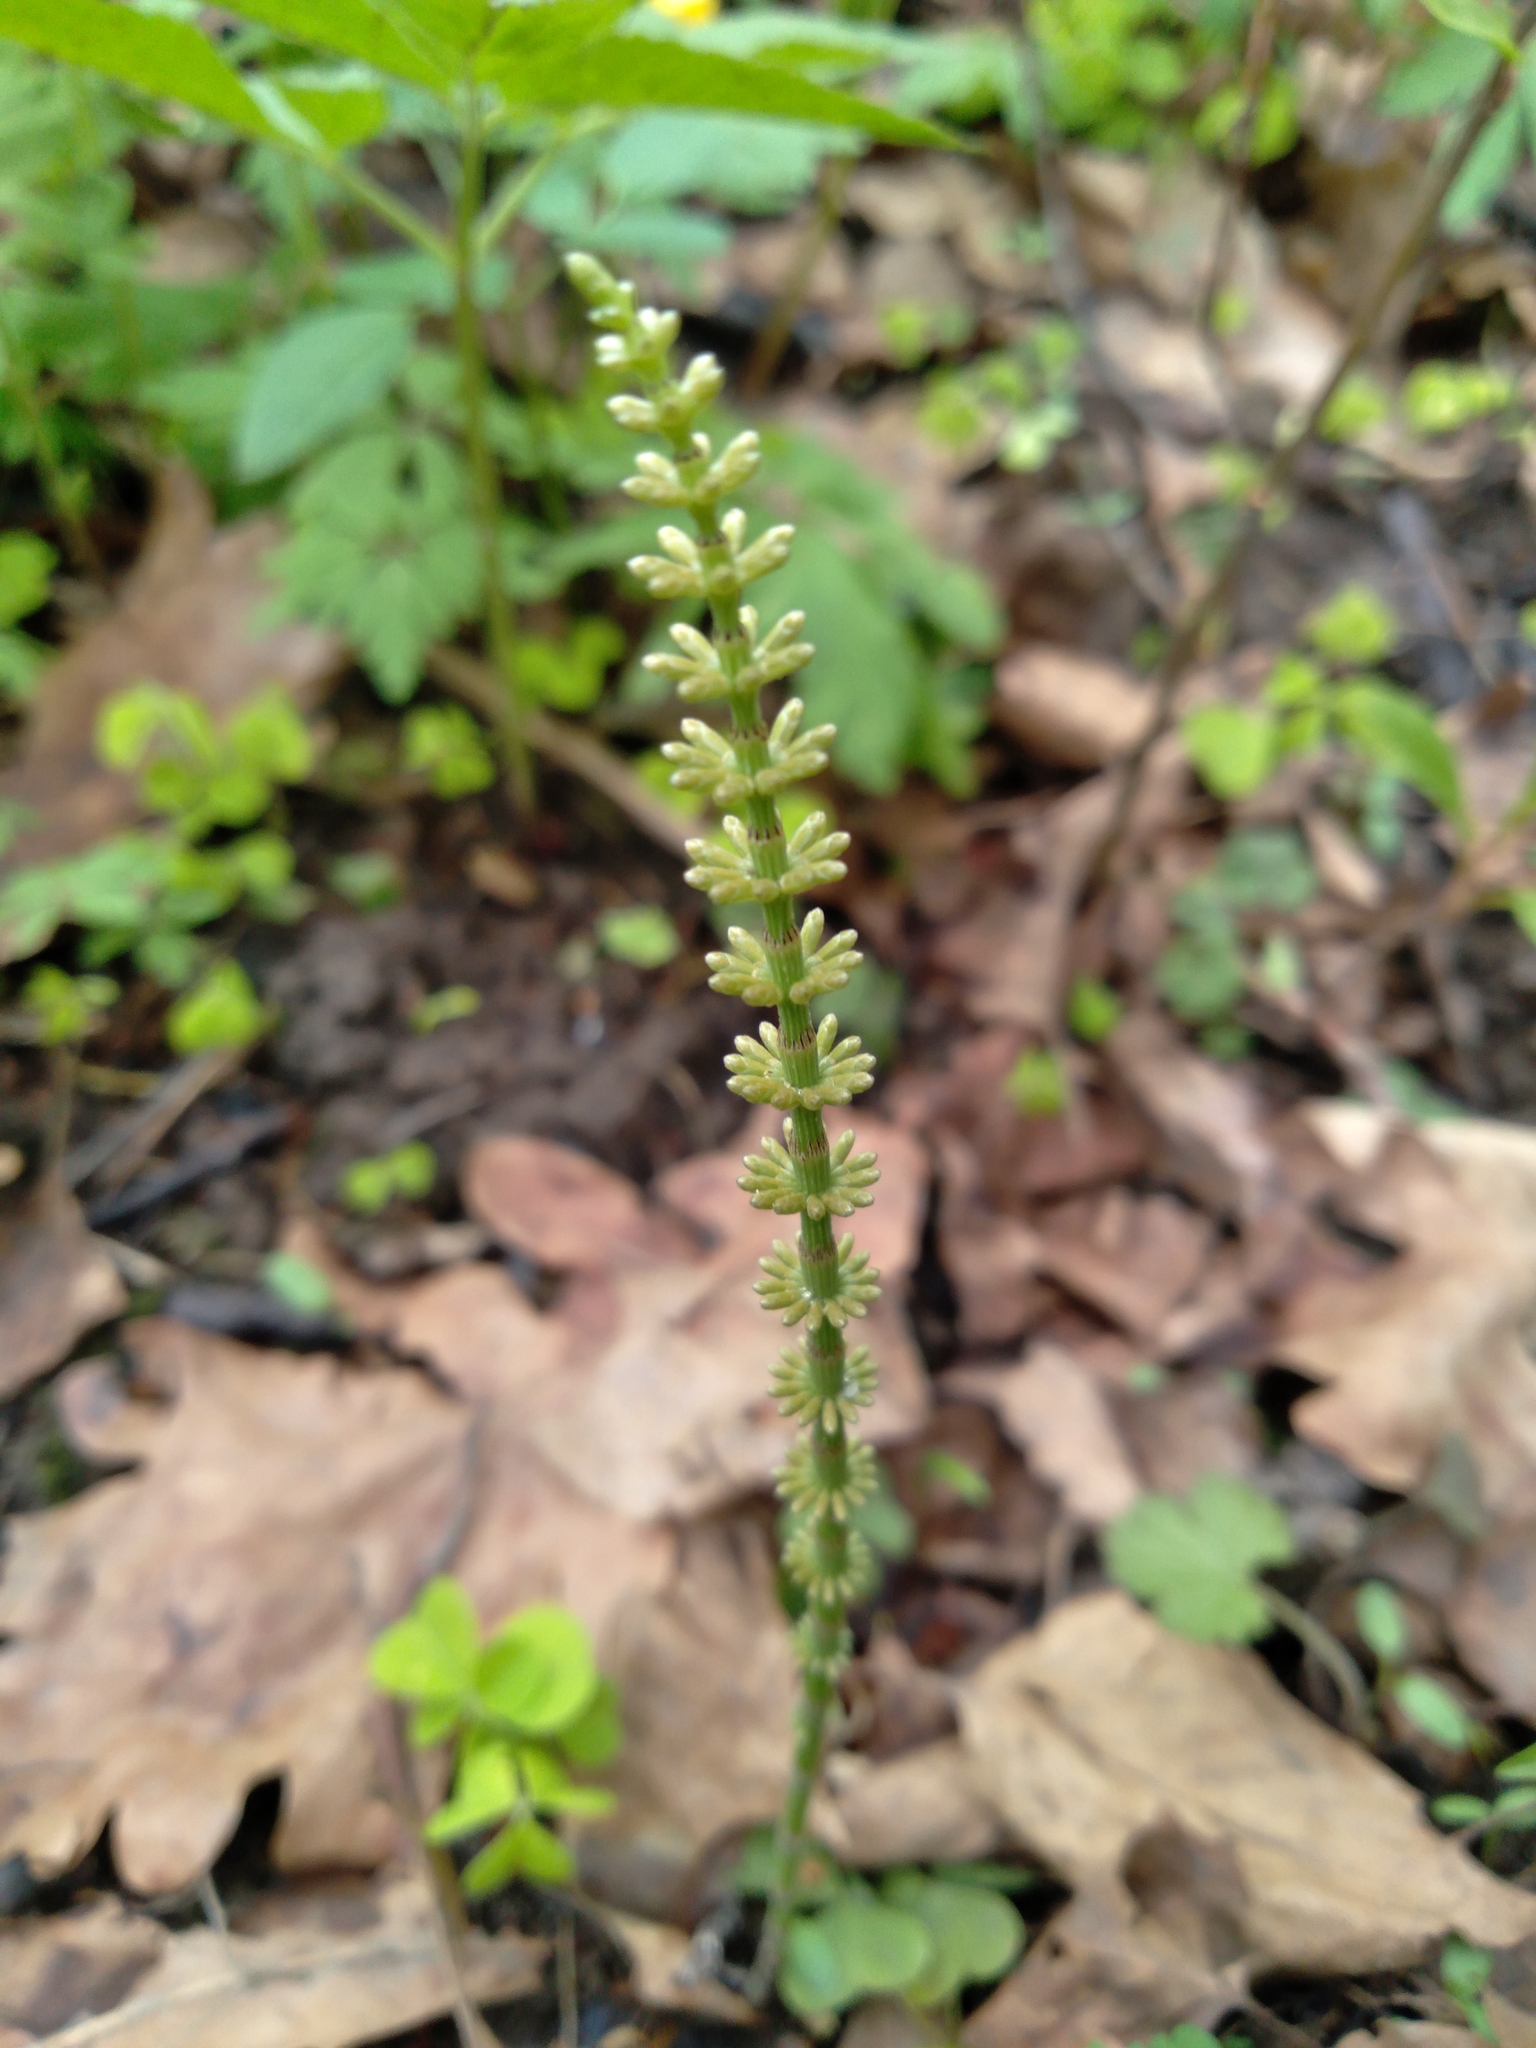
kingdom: Plantae
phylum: Tracheophyta
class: Polypodiopsida
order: Equisetales
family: Equisetaceae
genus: Equisetum
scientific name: Equisetum pratense
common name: Meadow horsetail
